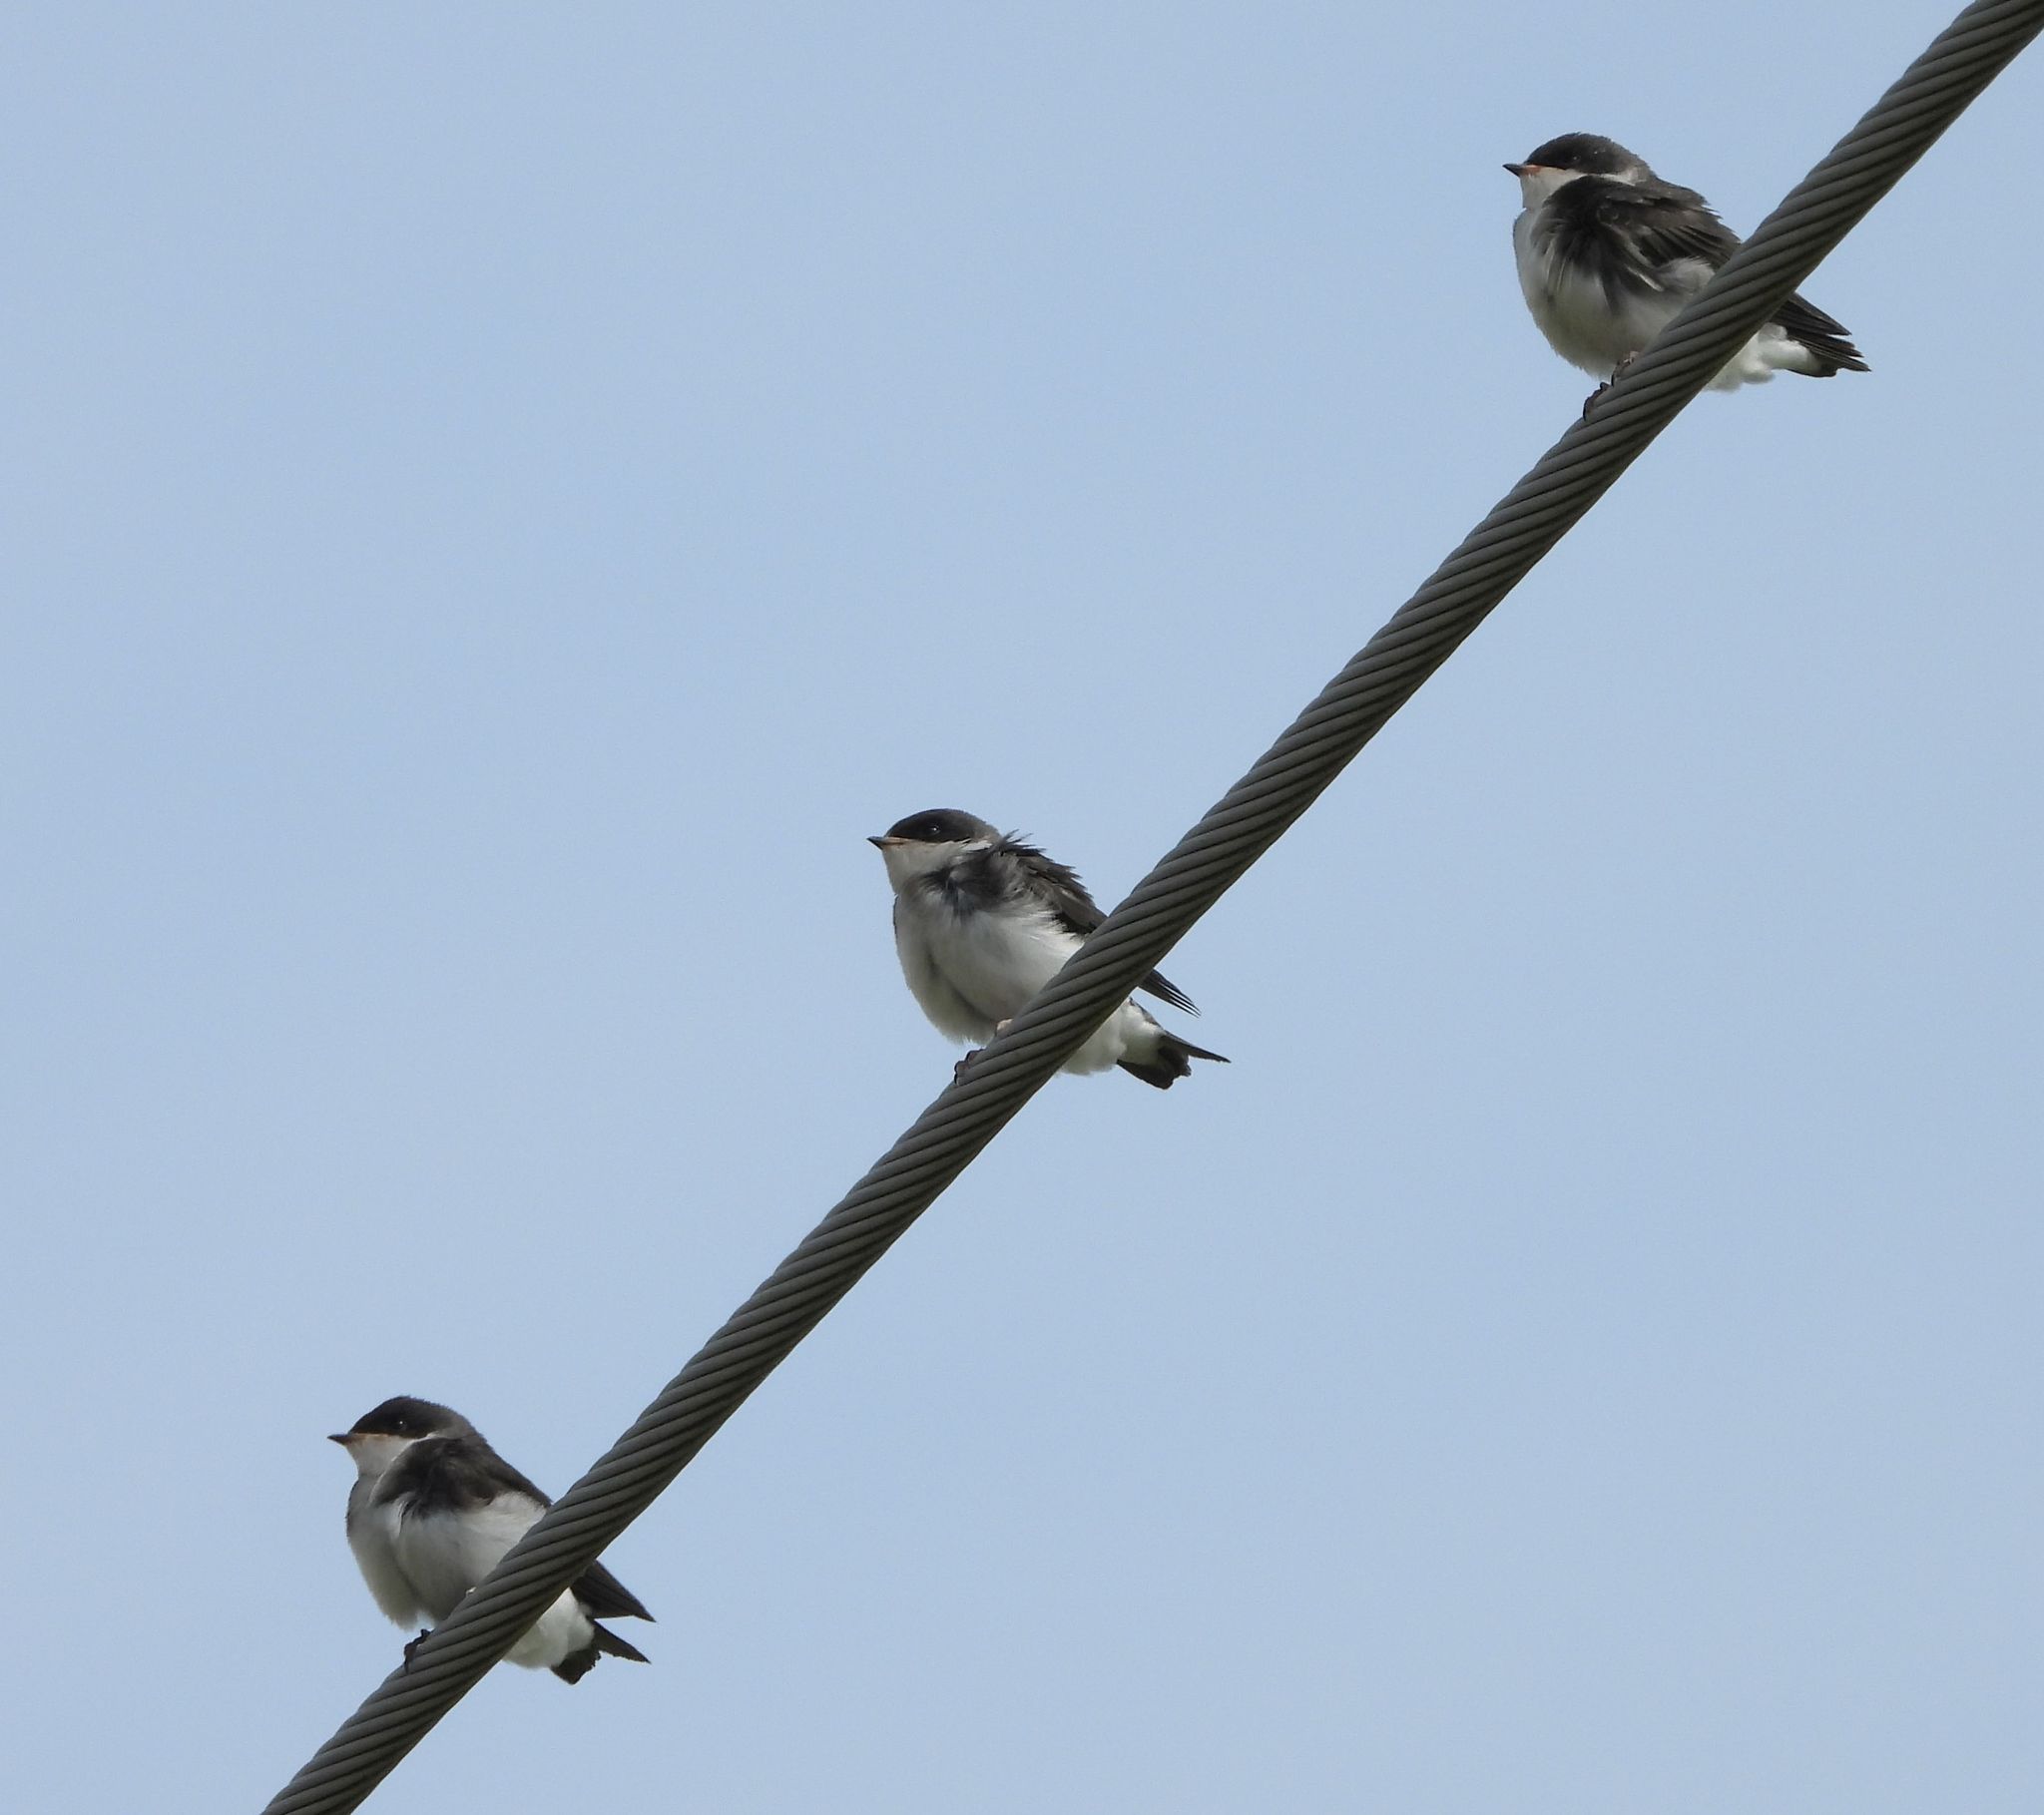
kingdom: Animalia
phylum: Chordata
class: Aves
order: Passeriformes
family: Hirundinidae
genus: Tachycineta
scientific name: Tachycineta bicolor
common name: Tree swallow
